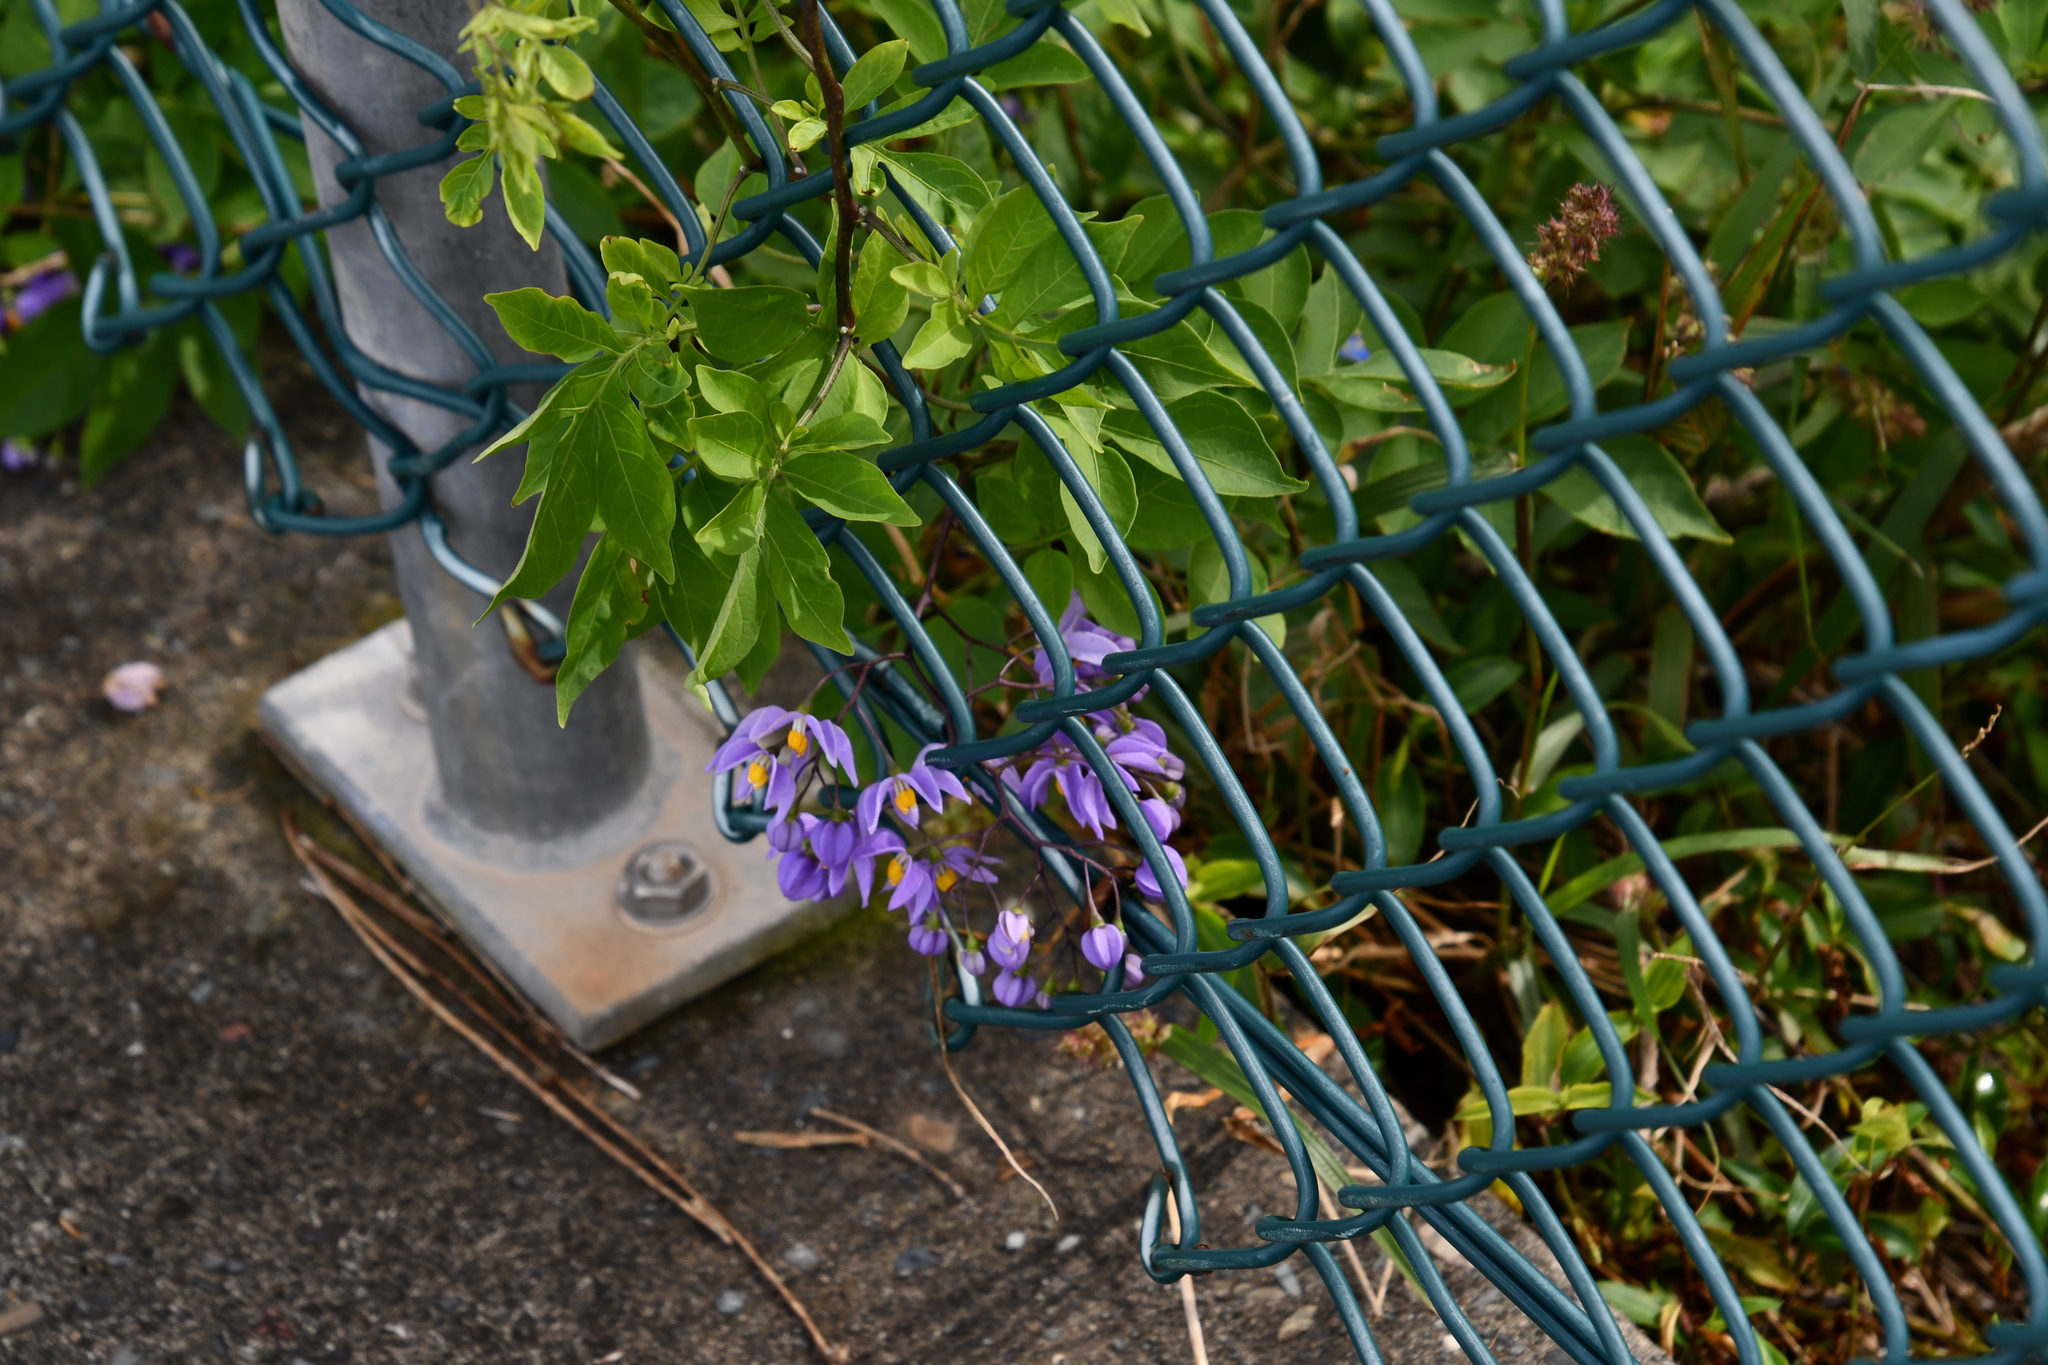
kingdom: Plantae
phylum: Tracheophyta
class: Magnoliopsida
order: Solanales
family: Solanaceae
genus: Solanum
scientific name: Solanum seaforthianum
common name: Brazilian nightshade
